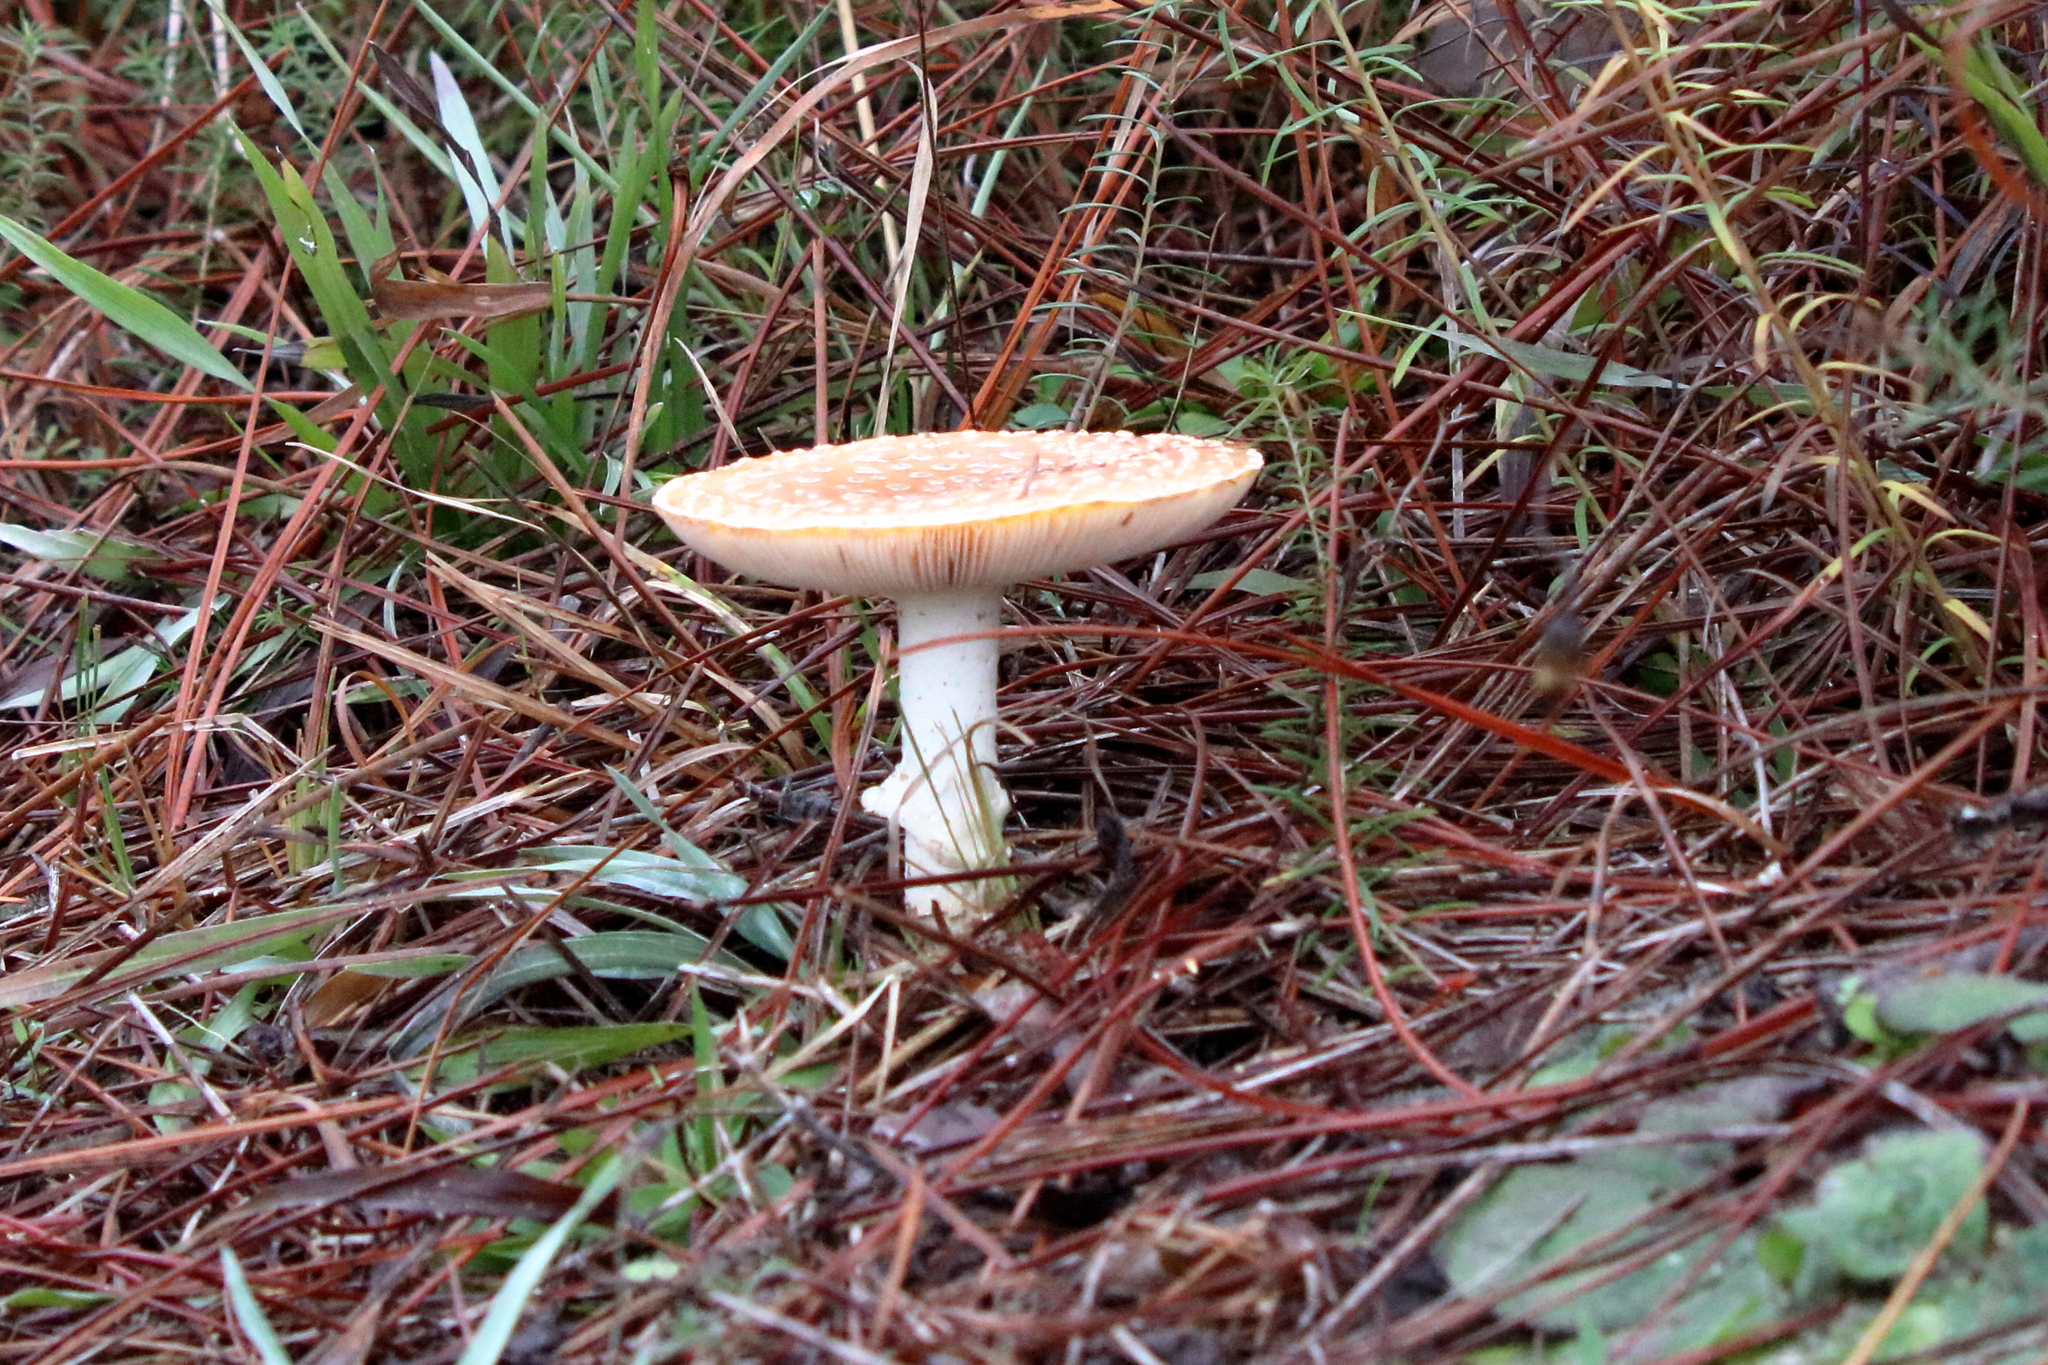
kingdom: Fungi
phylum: Basidiomycota
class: Agaricomycetes
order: Agaricales
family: Amanitaceae
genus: Amanita
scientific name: Amanita persicina
